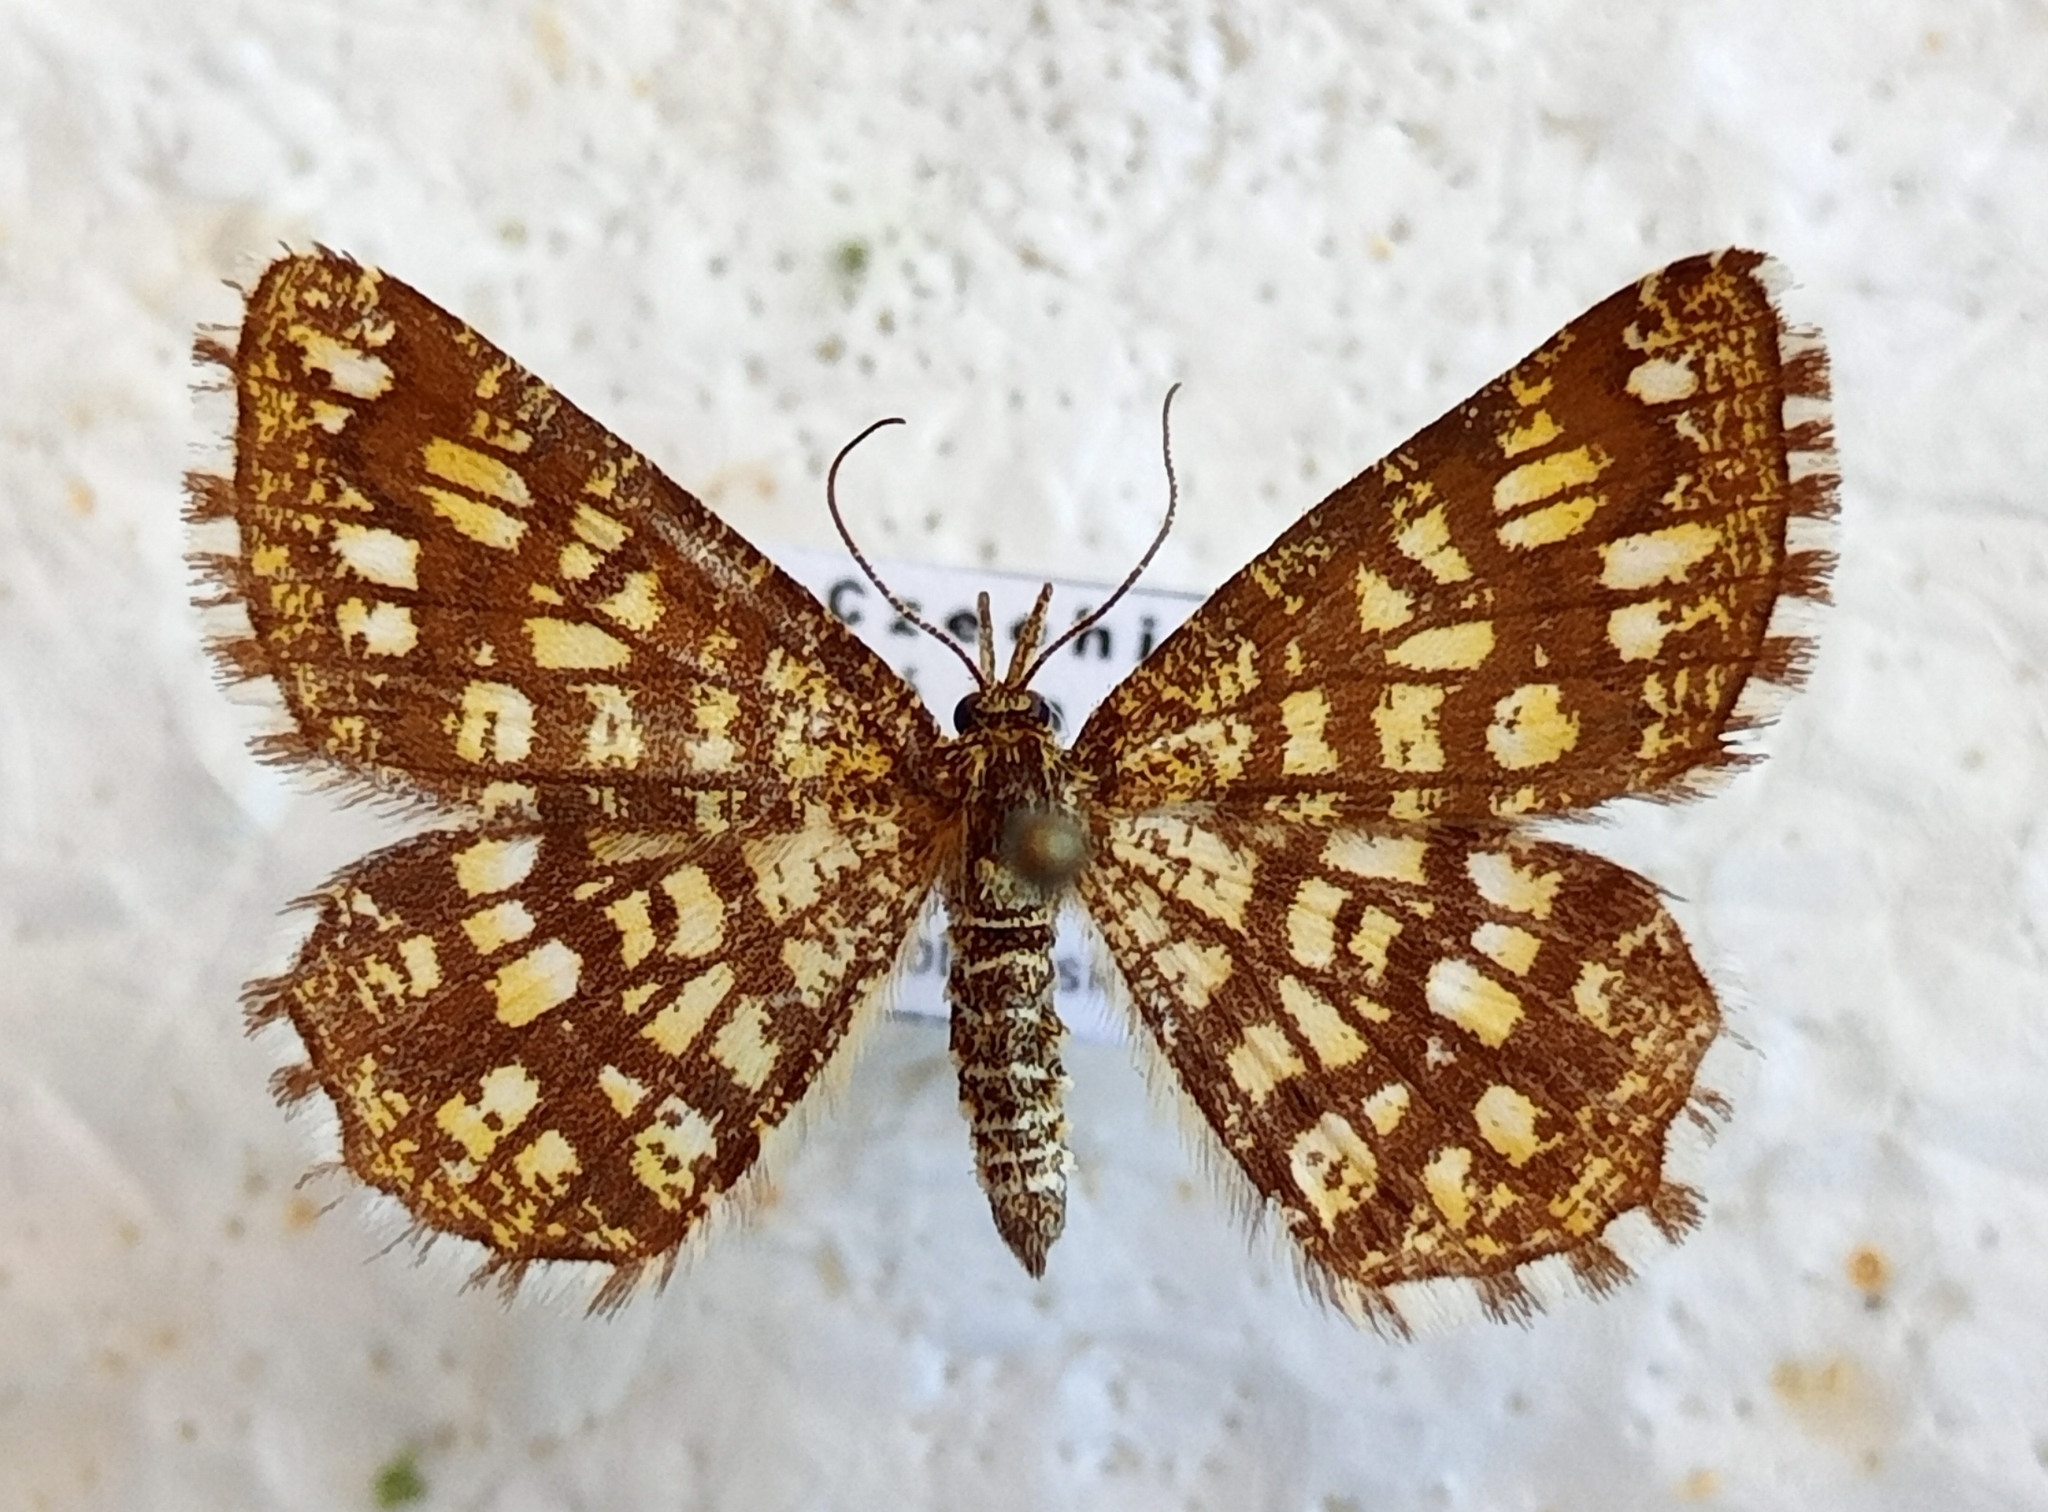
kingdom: Animalia
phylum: Arthropoda
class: Insecta
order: Lepidoptera
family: Geometridae
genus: Chiasmia
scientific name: Chiasmia clathrata
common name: Latticed heath
